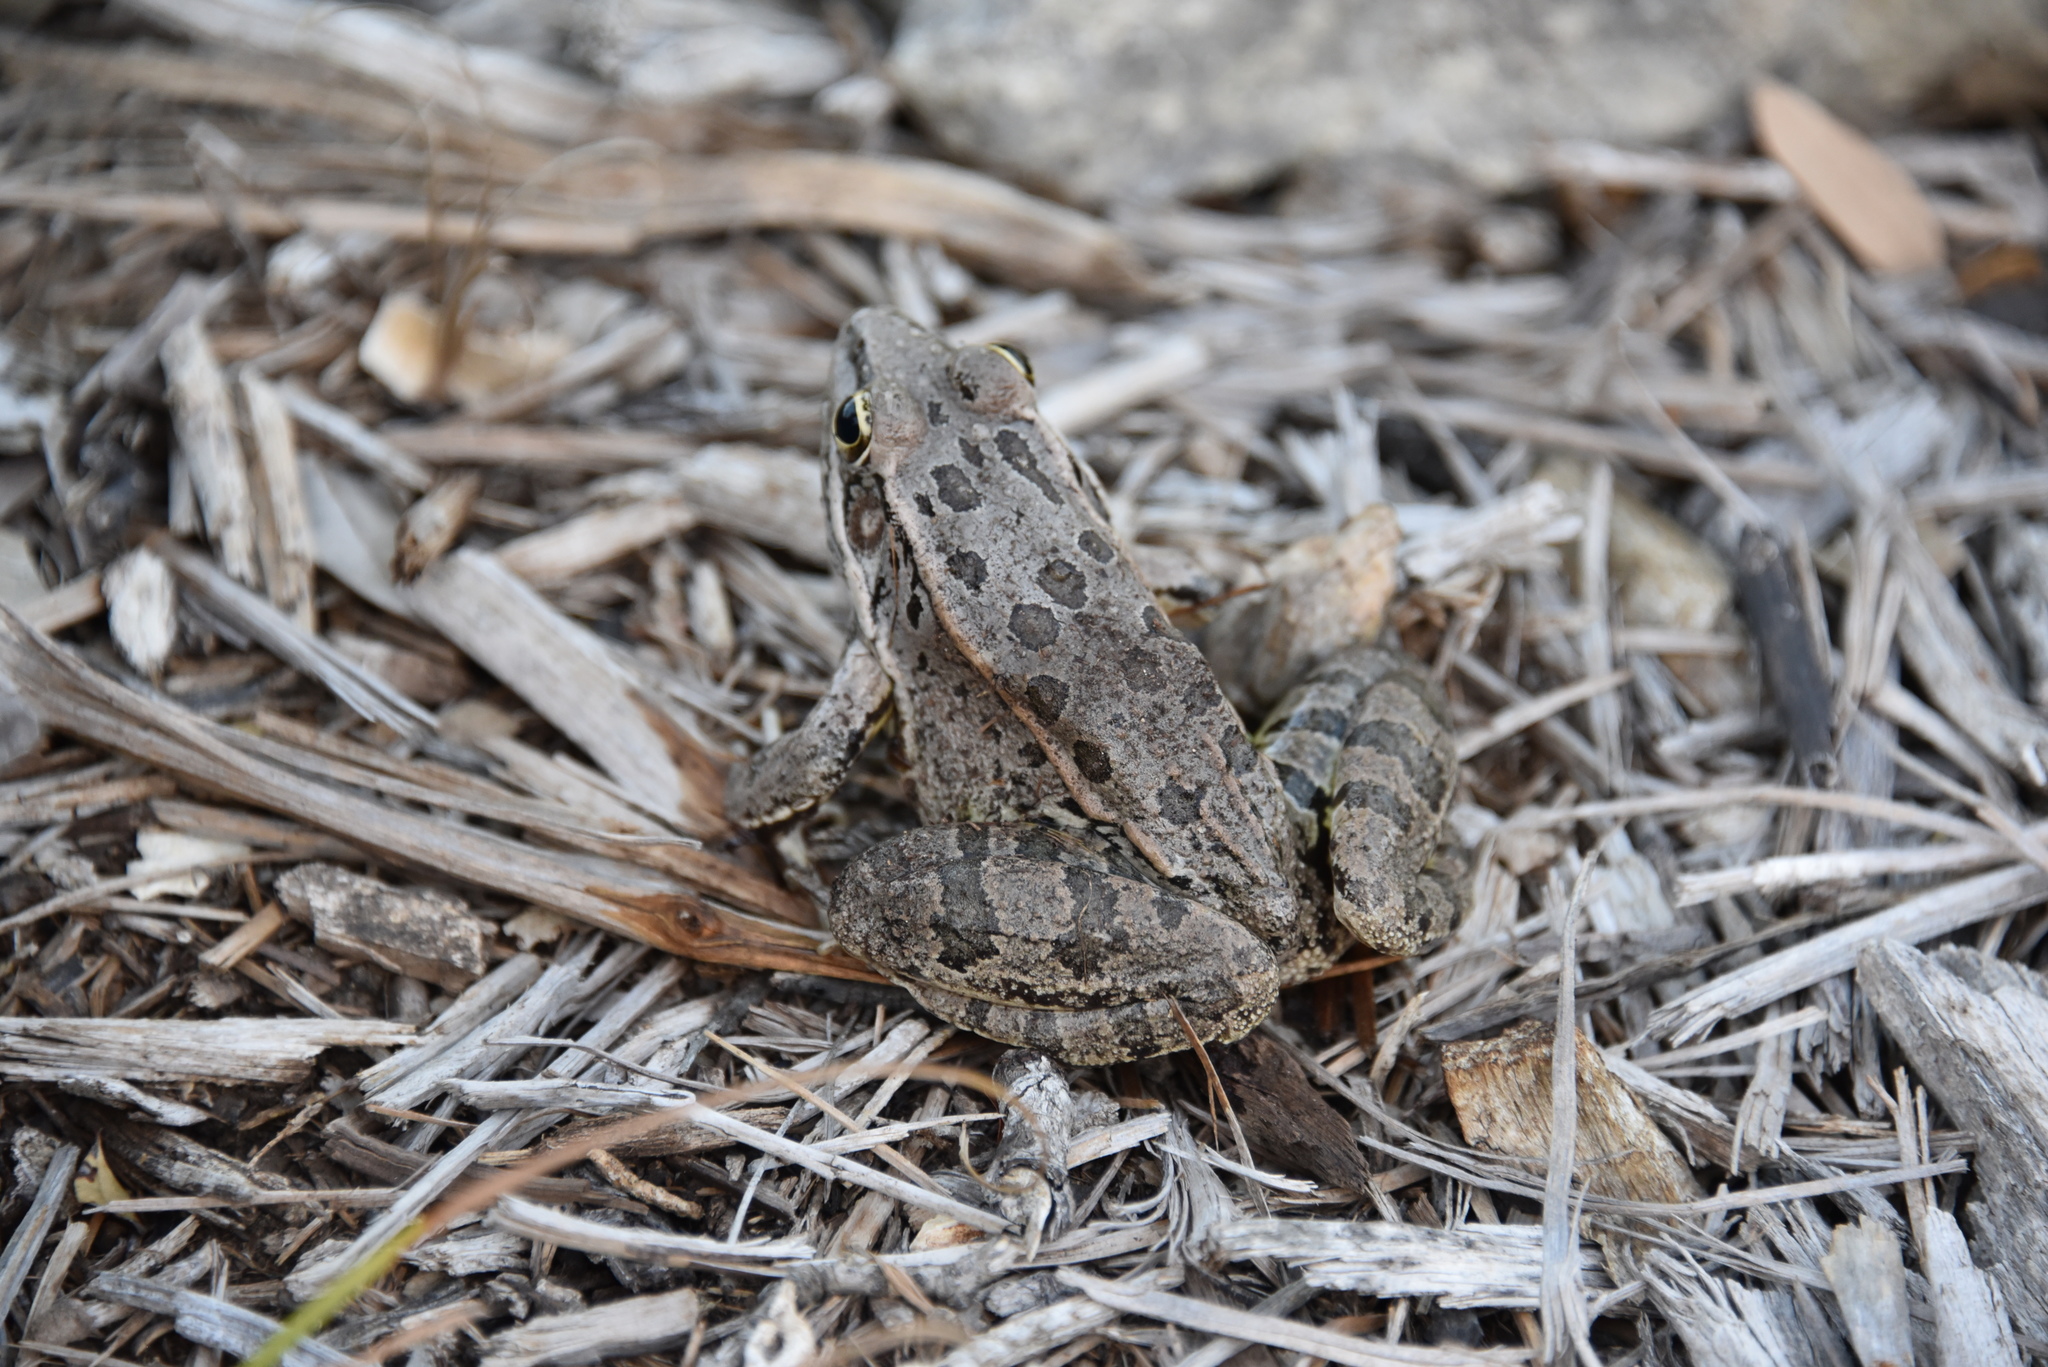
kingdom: Animalia
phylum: Chordata
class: Amphibia
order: Anura
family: Ranidae
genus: Lithobates
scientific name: Lithobates berlandieri
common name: Rio grande leopard frog
